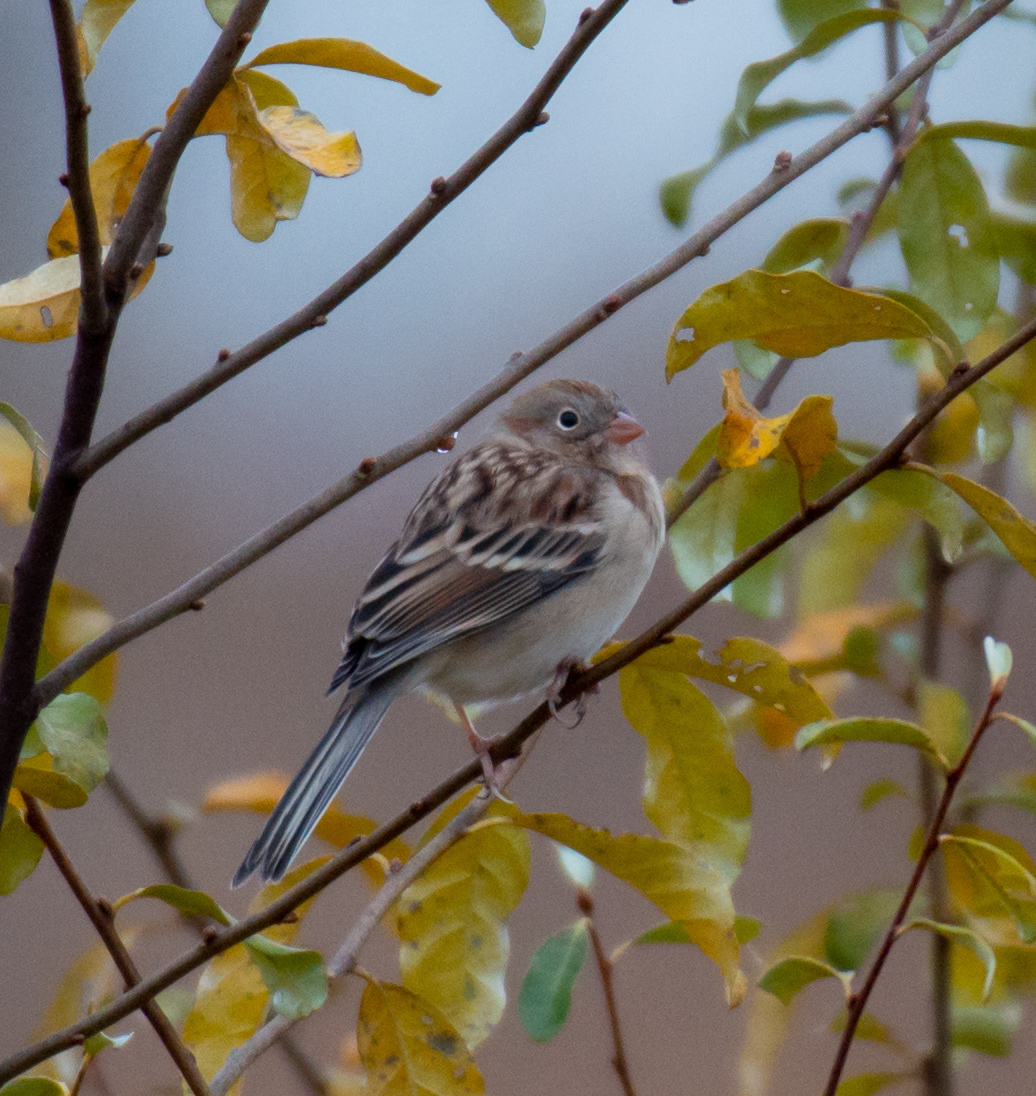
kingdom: Animalia
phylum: Chordata
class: Aves
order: Passeriformes
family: Passerellidae
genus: Spizella
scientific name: Spizella pusilla
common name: Field sparrow
